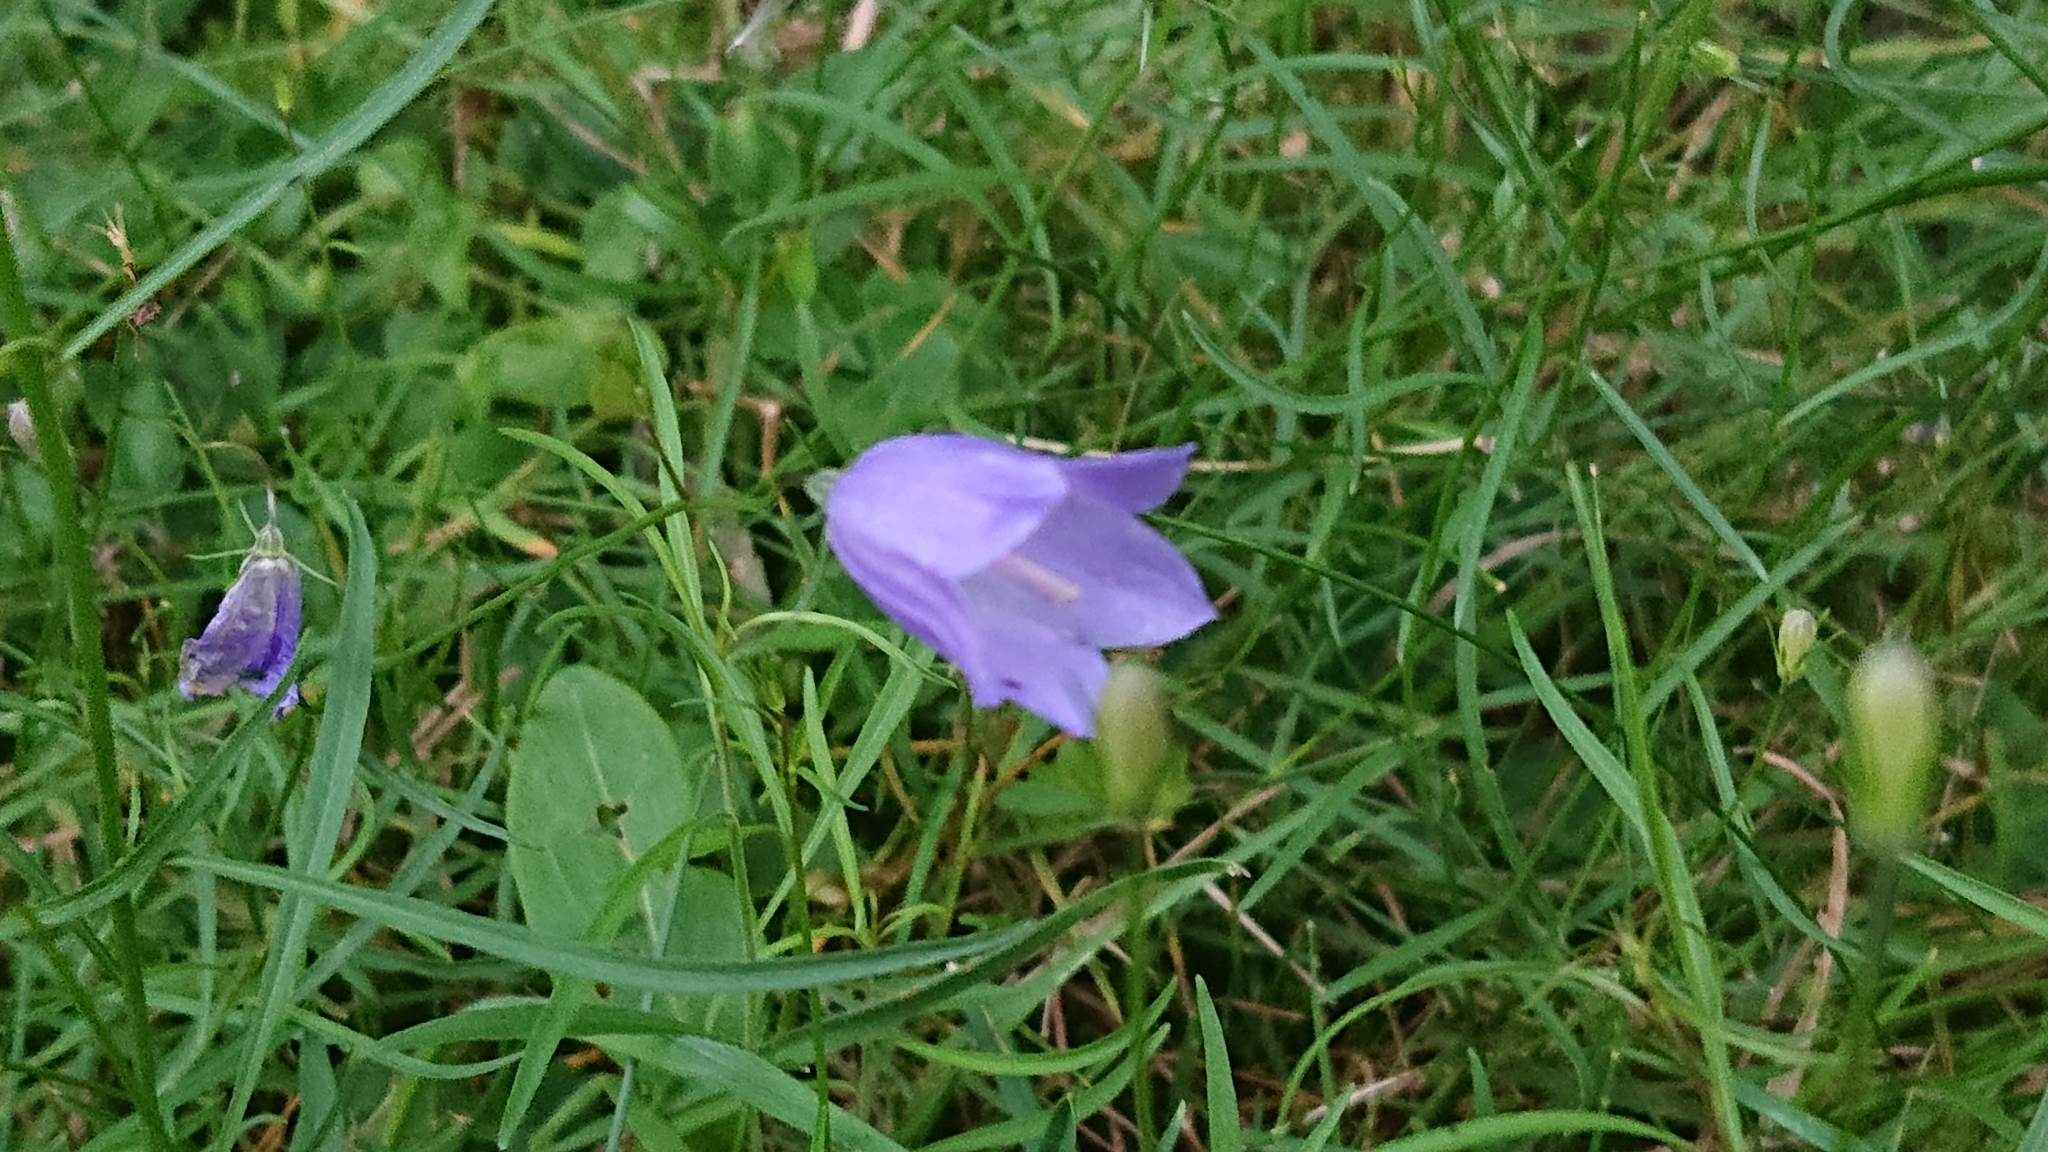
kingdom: Plantae
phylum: Tracheophyta
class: Magnoliopsida
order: Asterales
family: Campanulaceae
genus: Campanula
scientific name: Campanula rotundifolia
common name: Harebell
